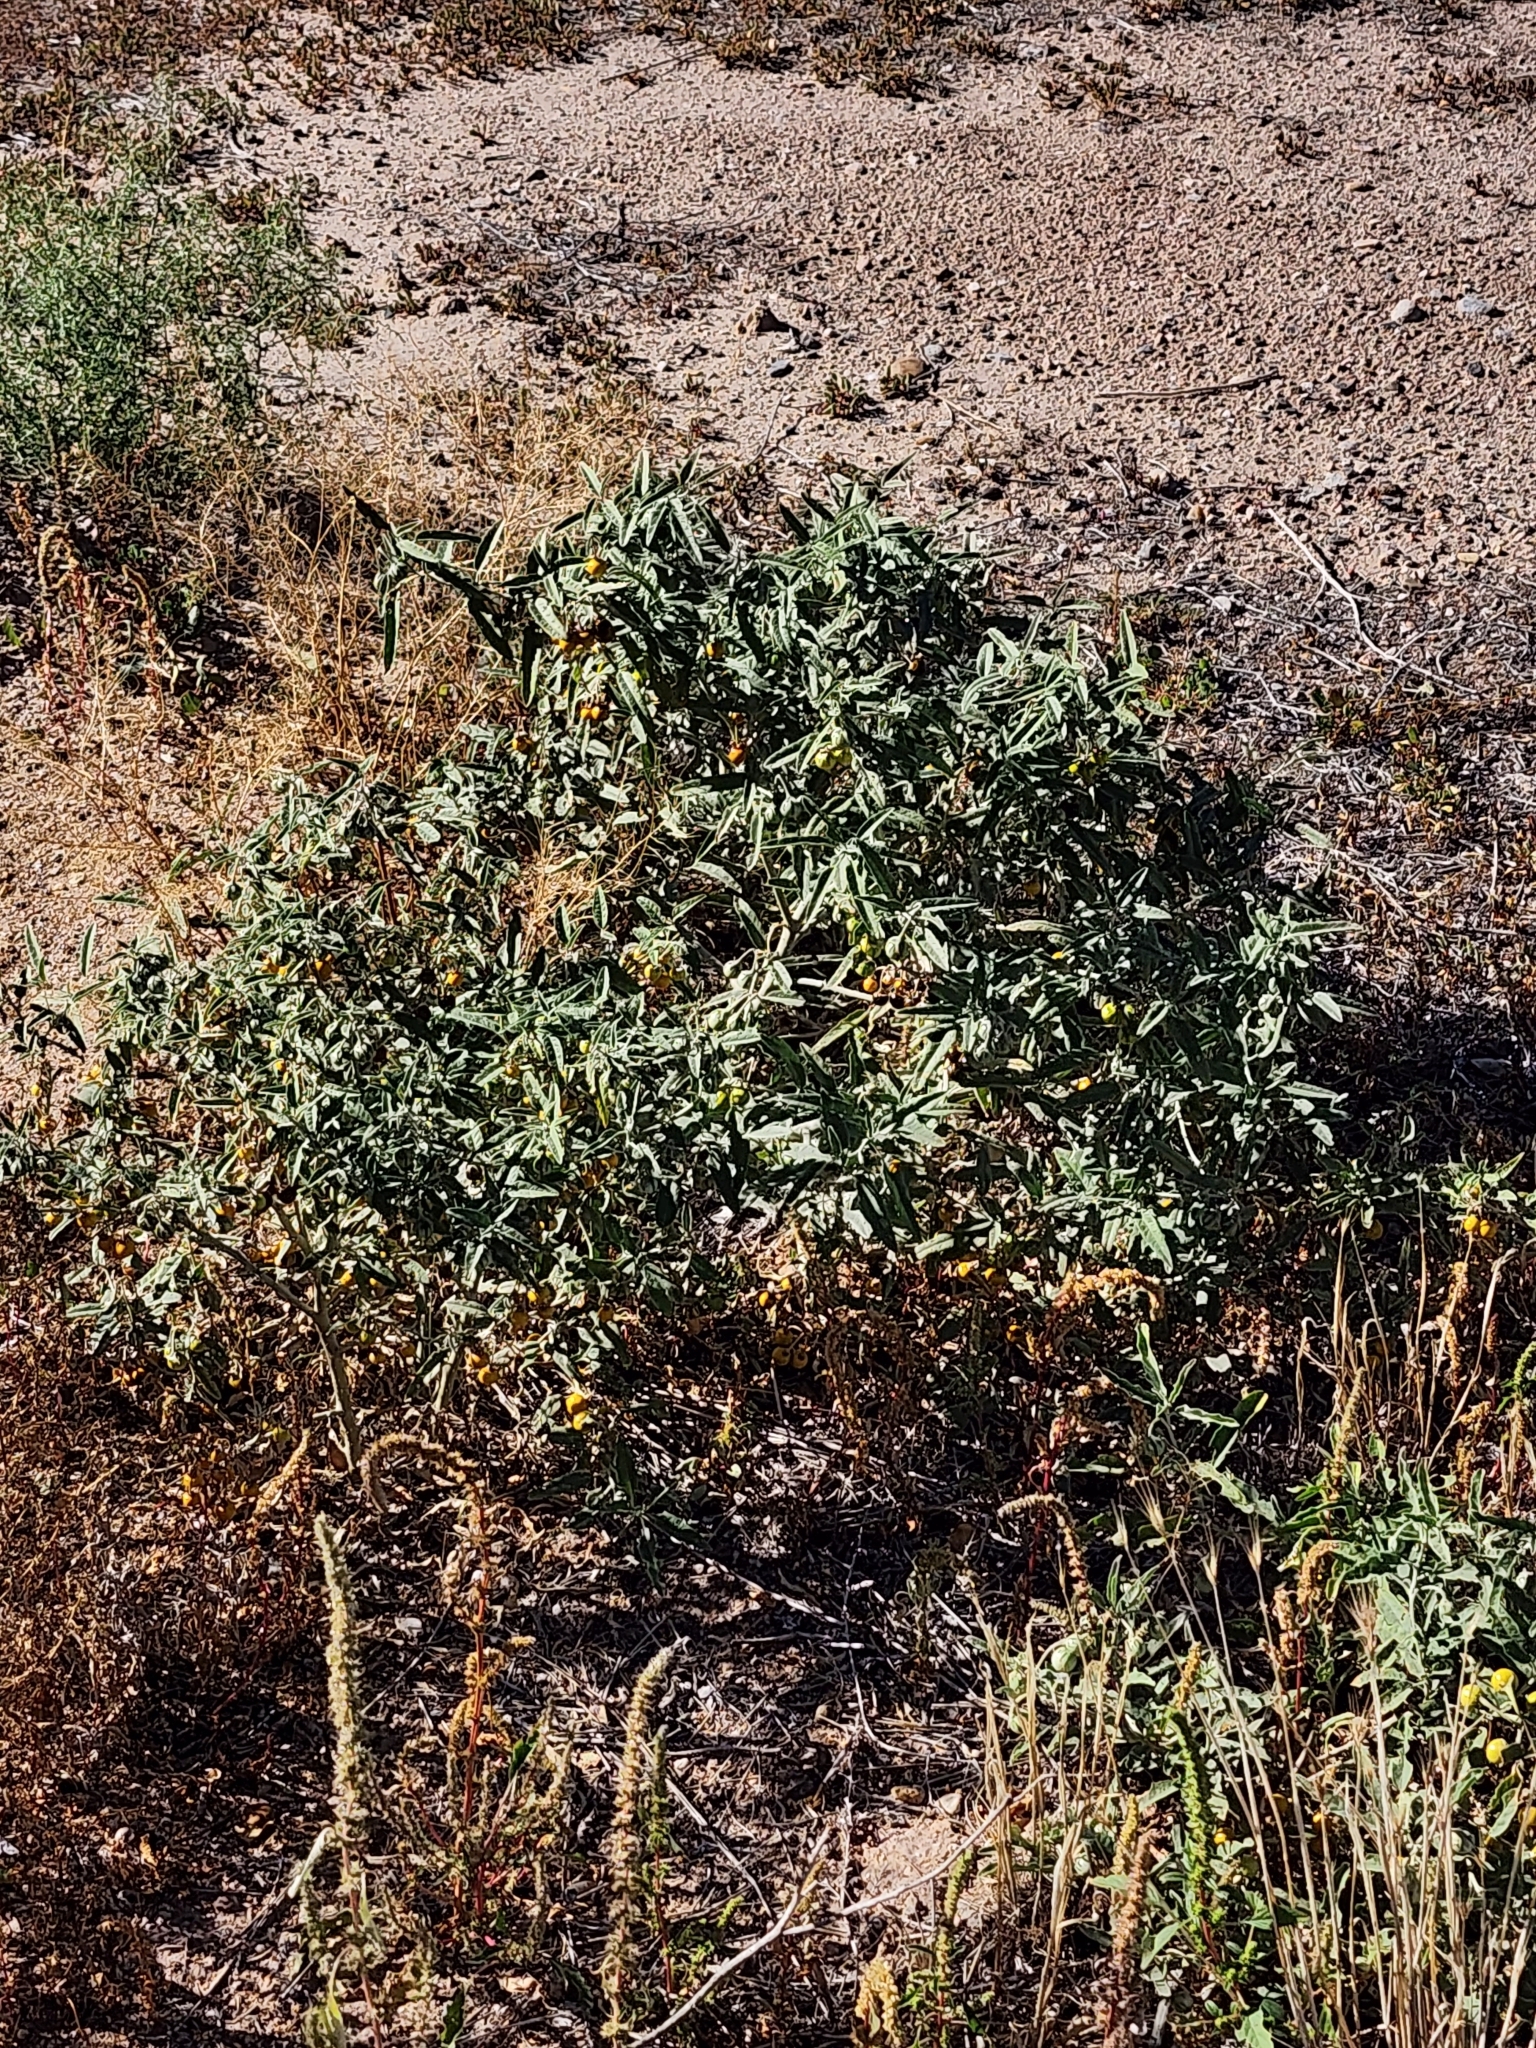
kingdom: Plantae
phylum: Tracheophyta
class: Magnoliopsida
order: Solanales
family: Solanaceae
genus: Solanum
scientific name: Solanum elaeagnifolium
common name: Silverleaf nightshade
